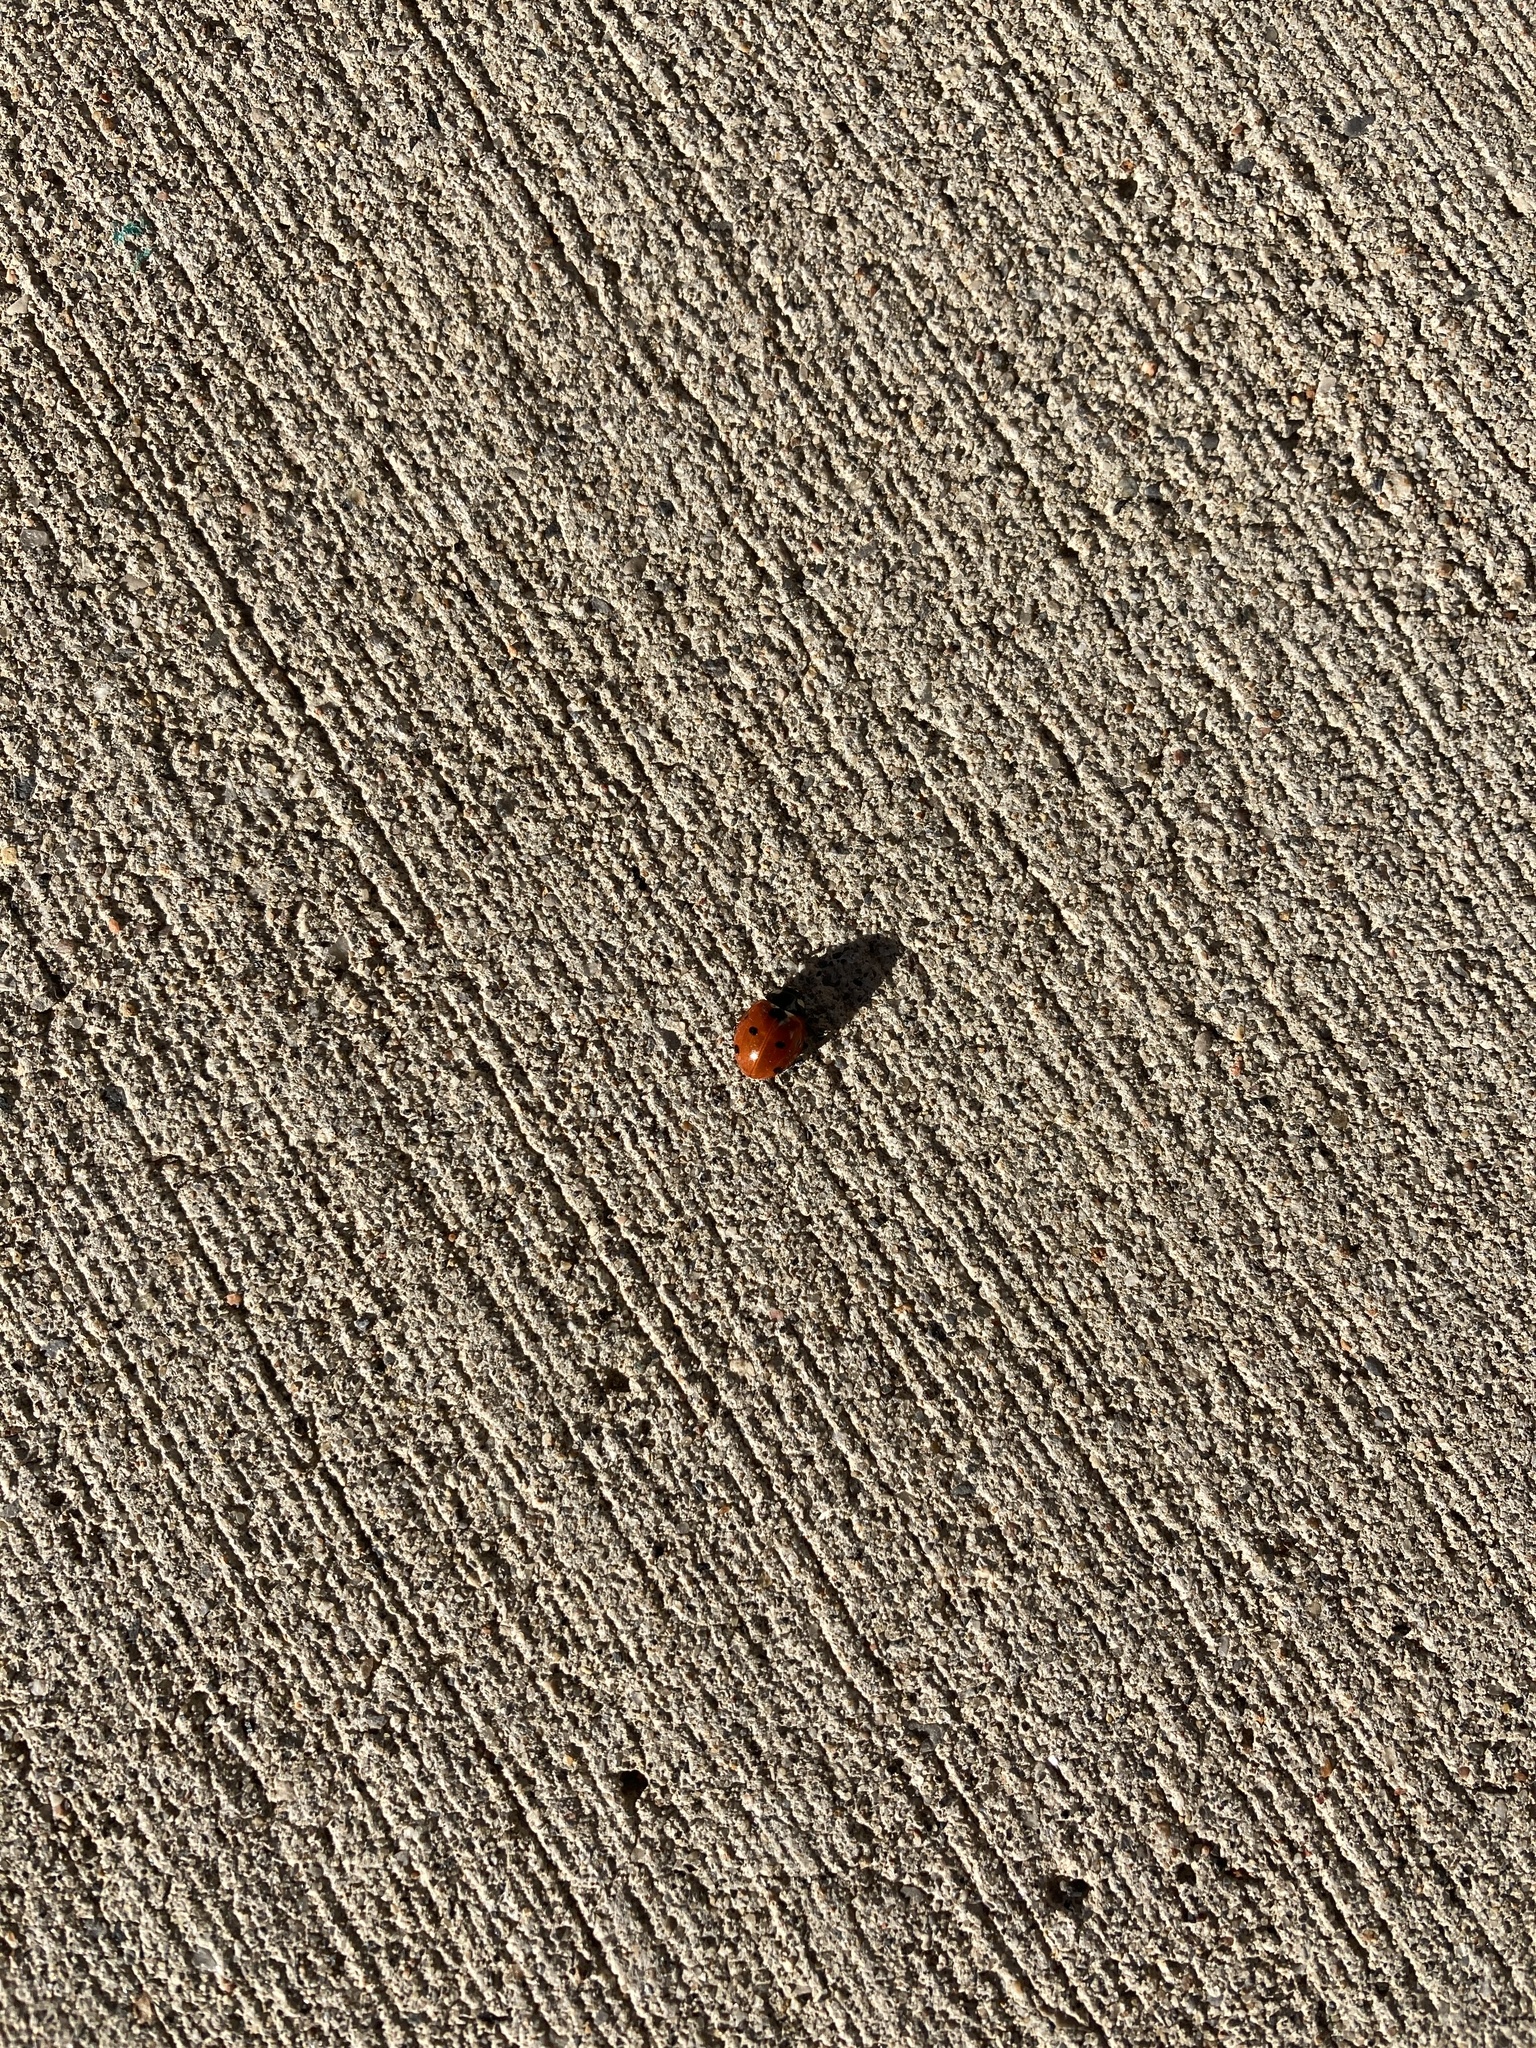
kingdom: Animalia
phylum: Arthropoda
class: Insecta
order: Coleoptera
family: Coccinellidae
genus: Coccinella
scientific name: Coccinella septempunctata
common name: Sevenspotted lady beetle
